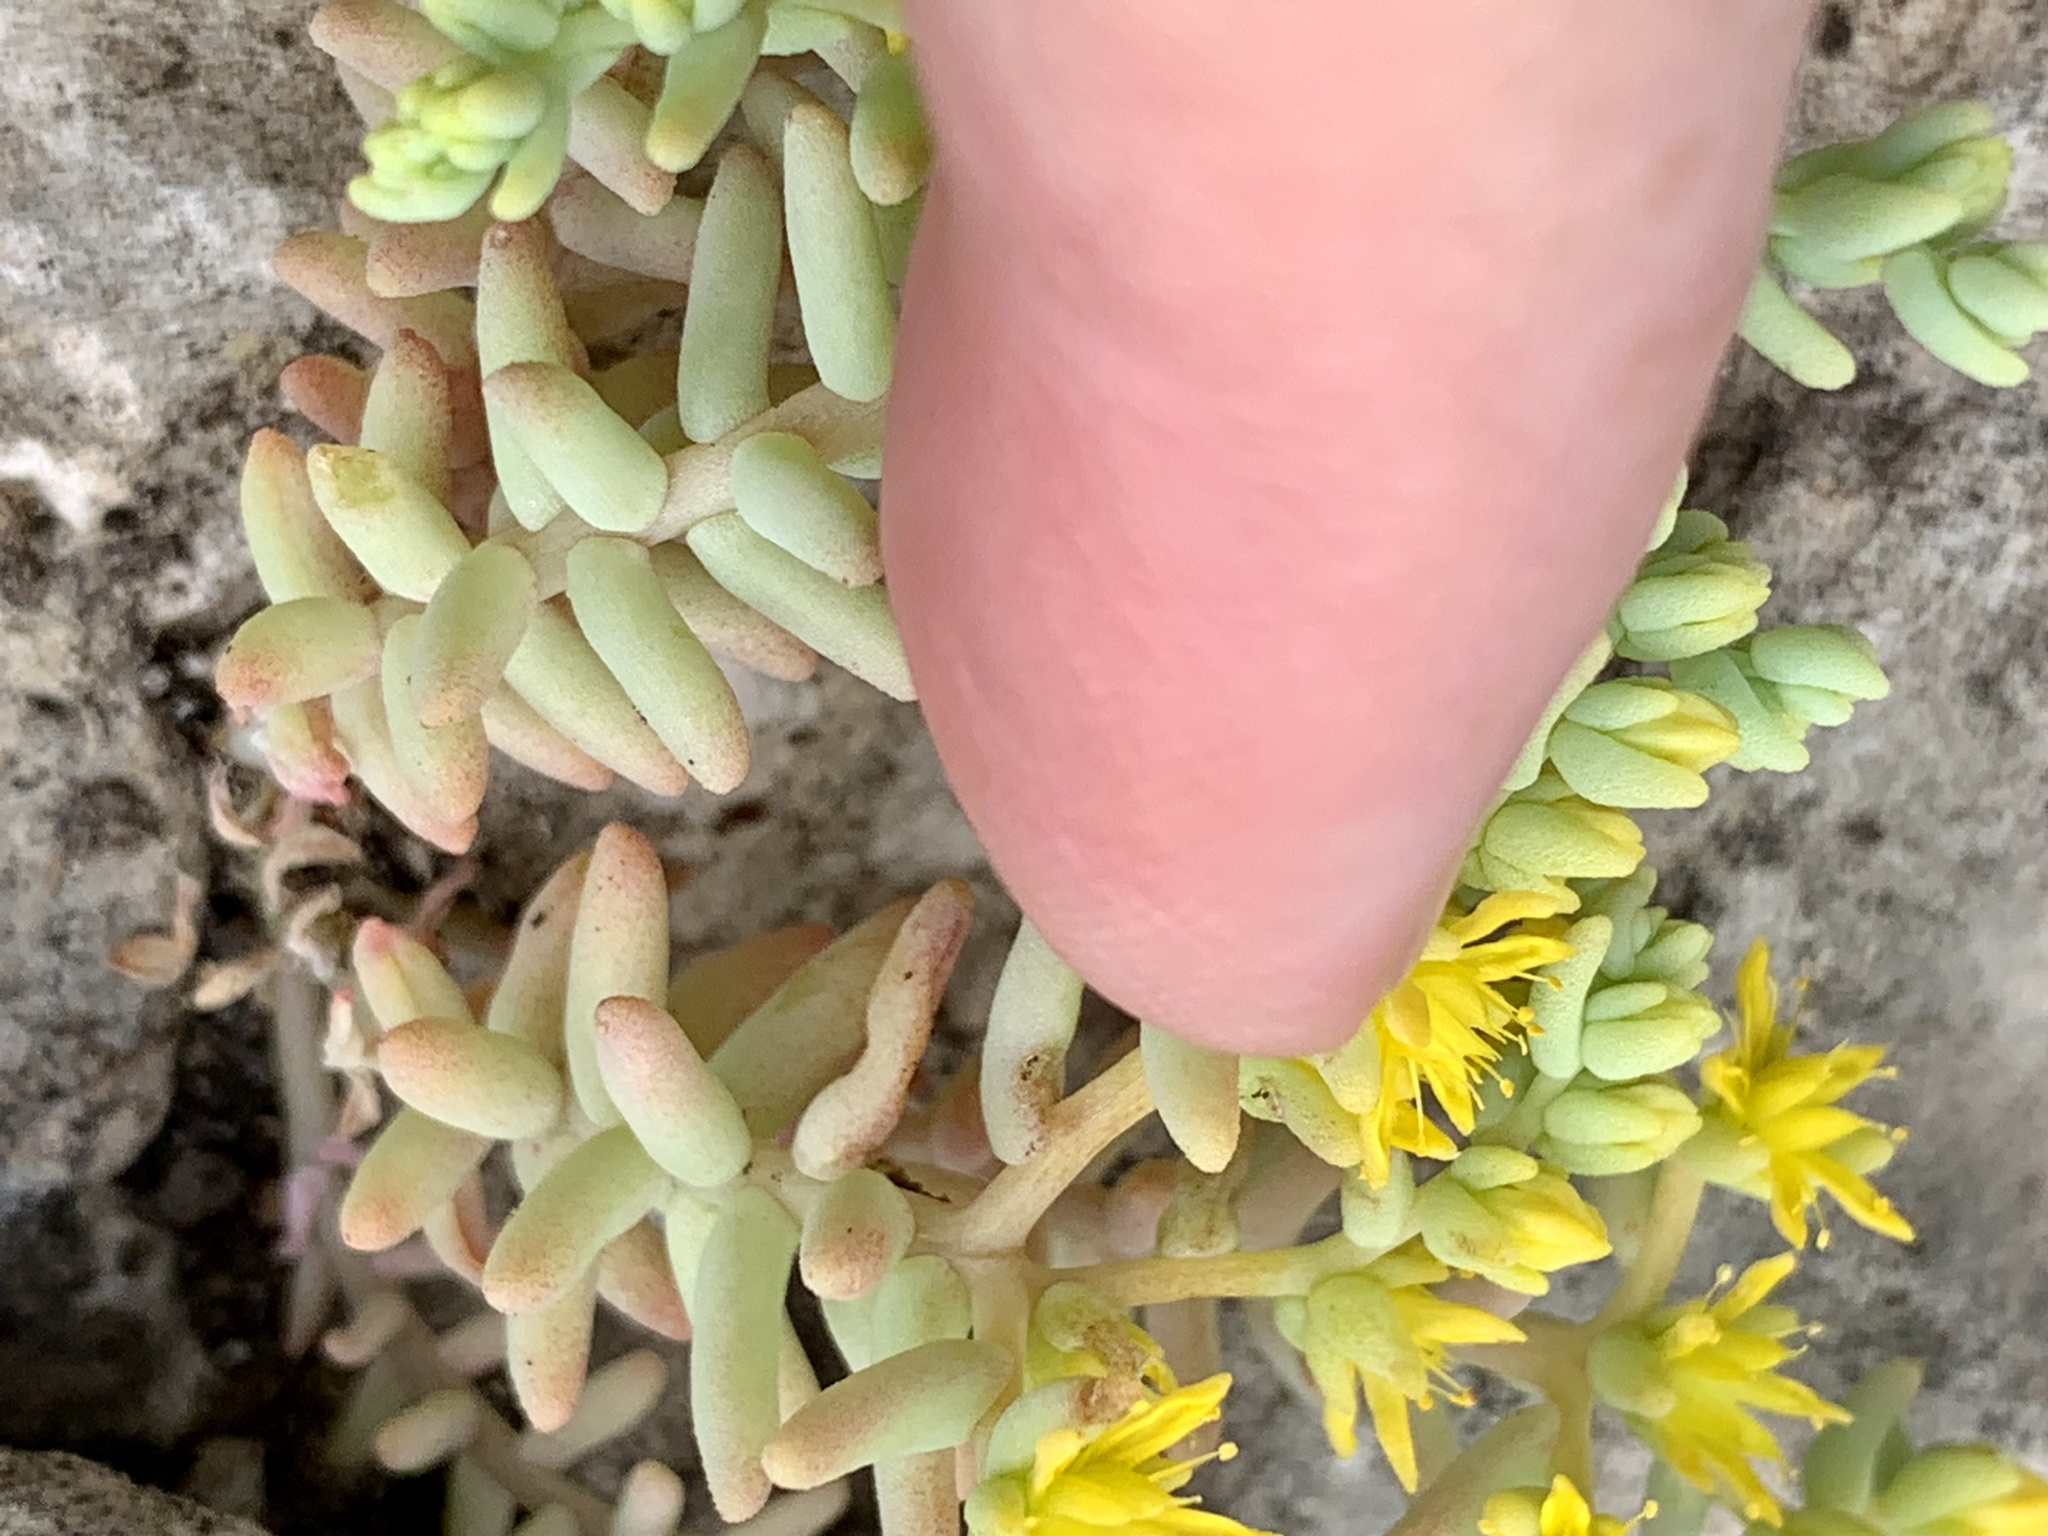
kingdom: Plantae
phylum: Tracheophyta
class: Magnoliopsida
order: Saxifragales
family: Crassulaceae
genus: Sedum
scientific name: Sedum nuttallii
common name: Yellow stonecrop
